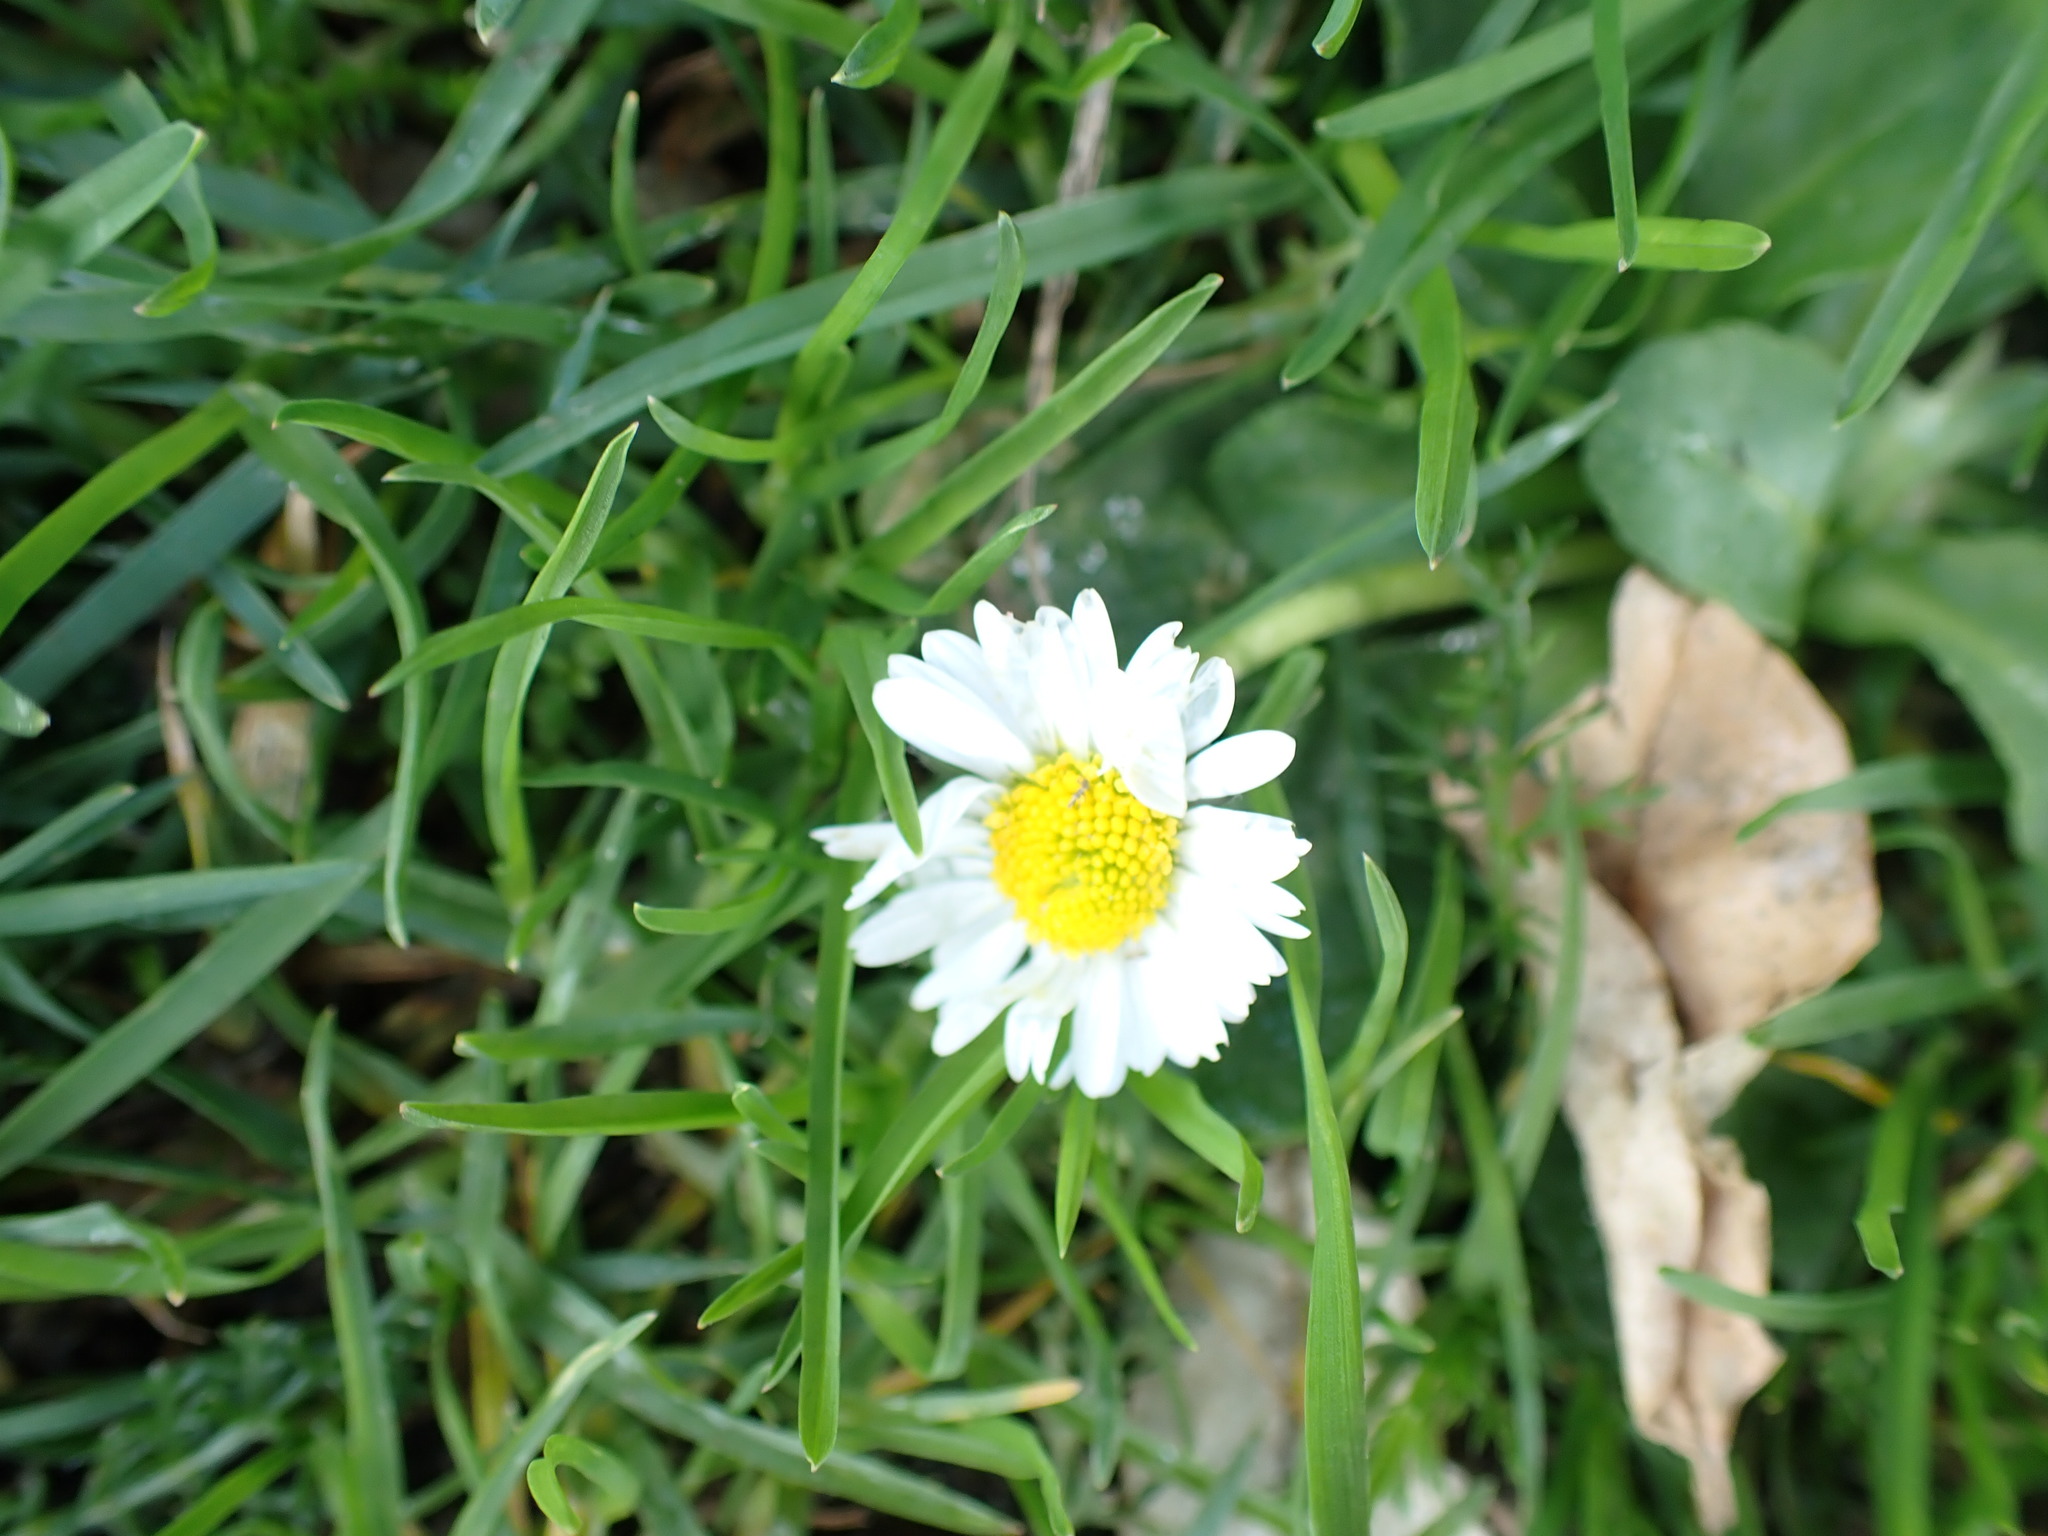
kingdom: Plantae
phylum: Tracheophyta
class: Magnoliopsida
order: Asterales
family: Asteraceae
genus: Bellis
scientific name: Bellis perennis
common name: Lawndaisy
